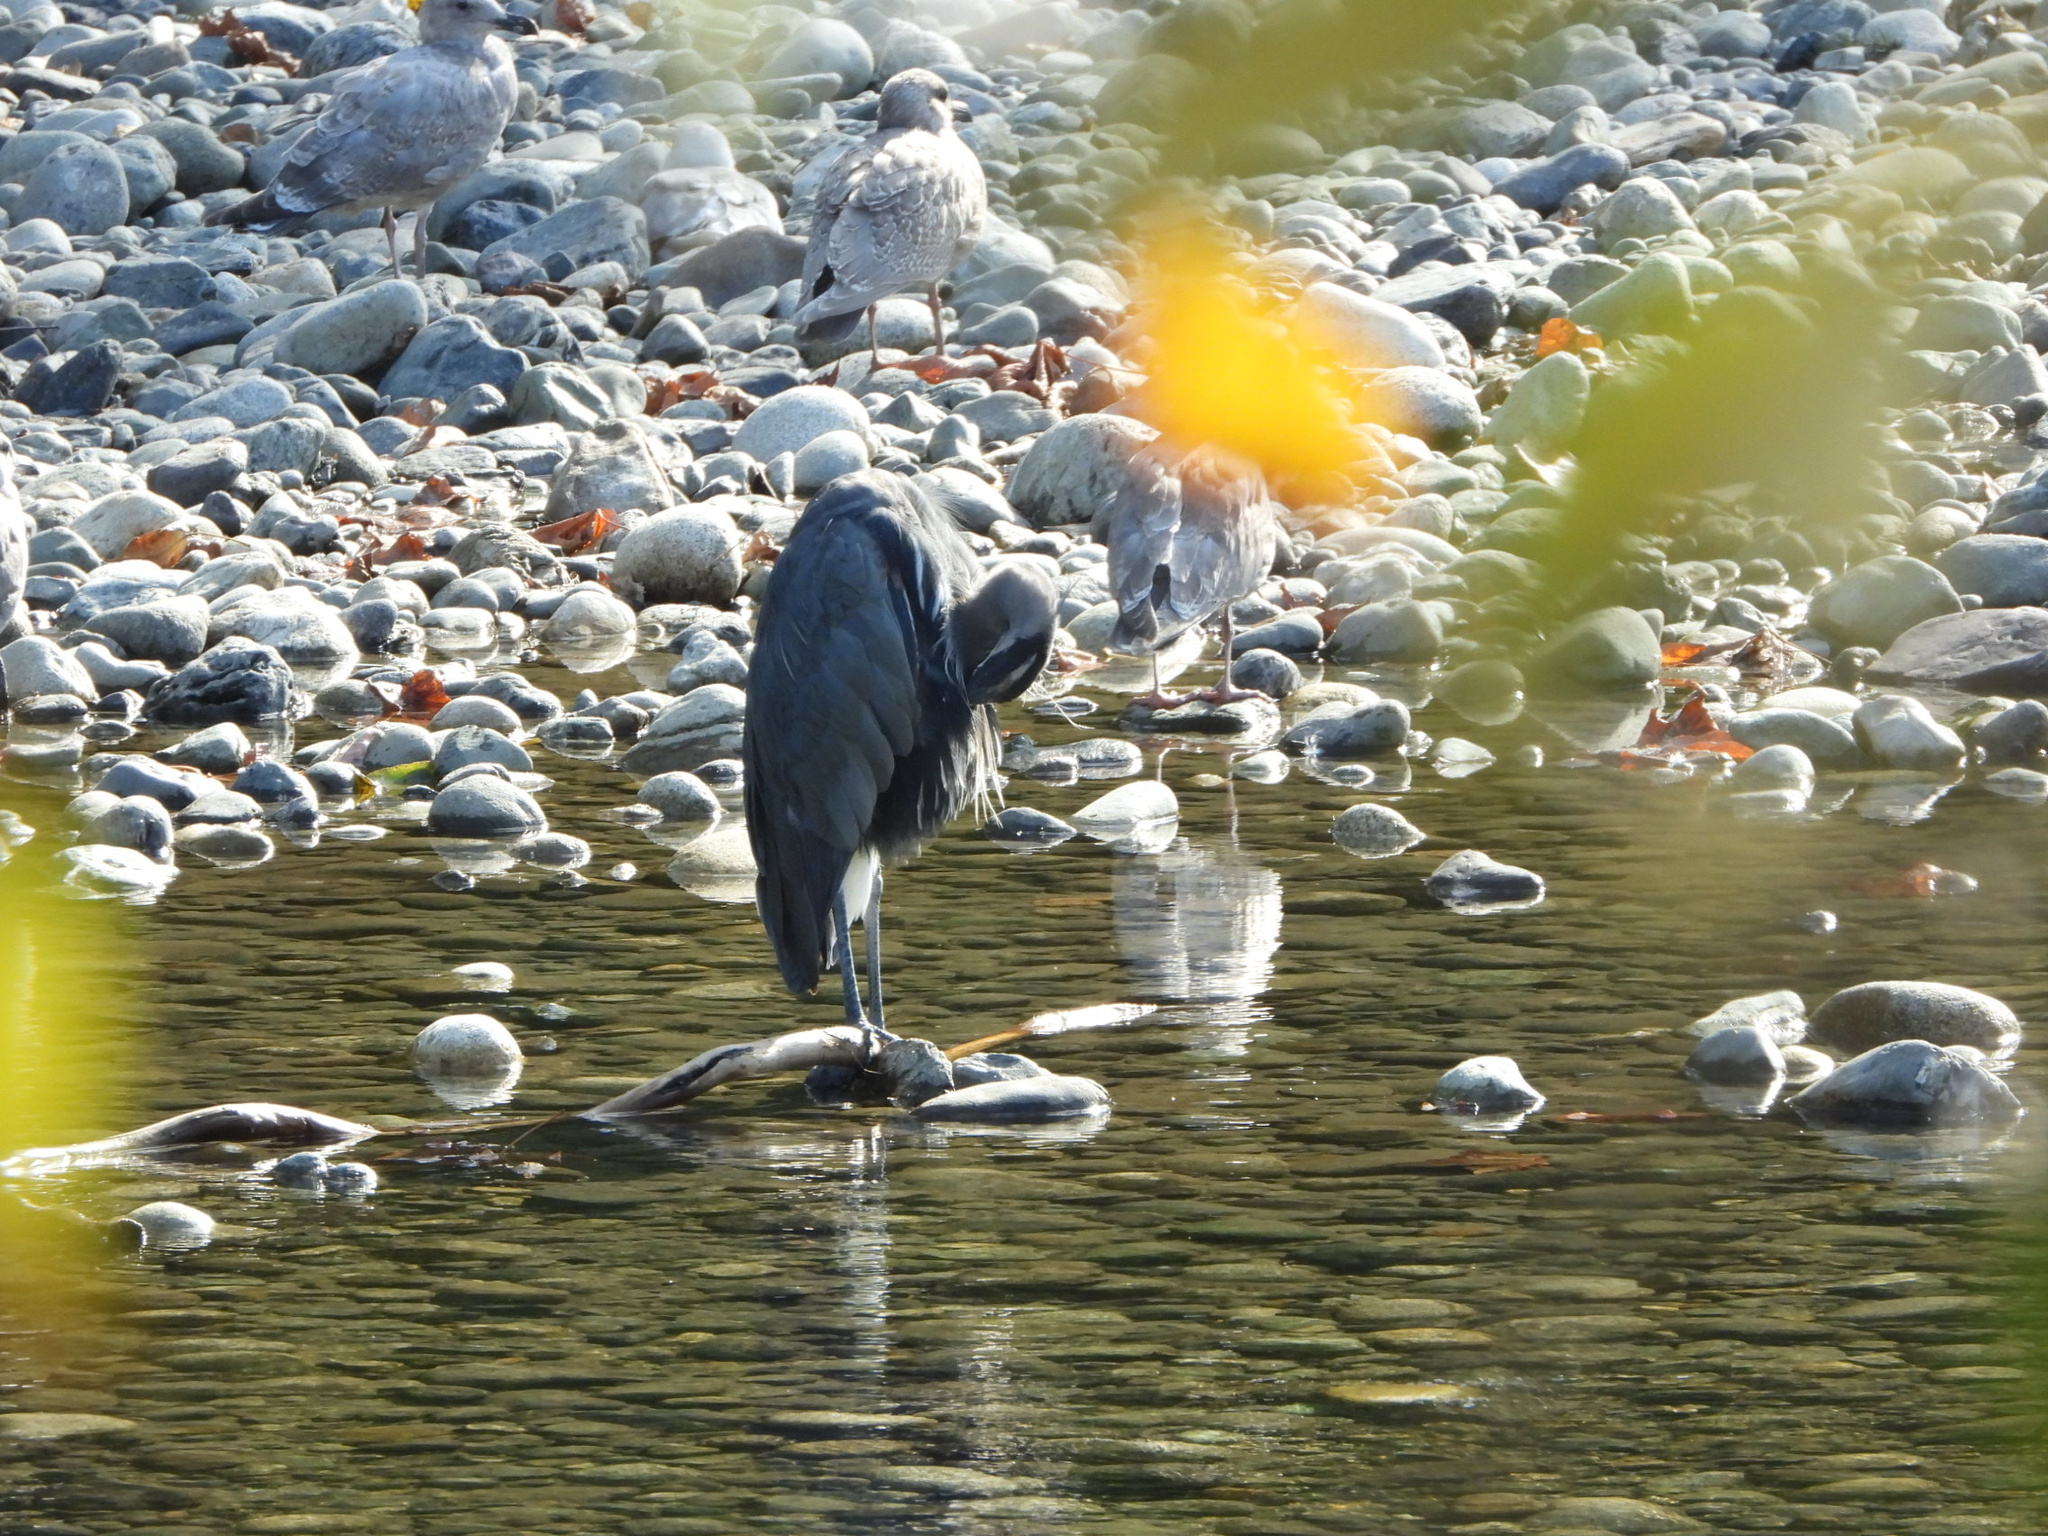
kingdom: Animalia
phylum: Chordata
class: Aves
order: Pelecaniformes
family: Ardeidae
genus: Ardea
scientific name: Ardea herodias
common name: Great blue heron
